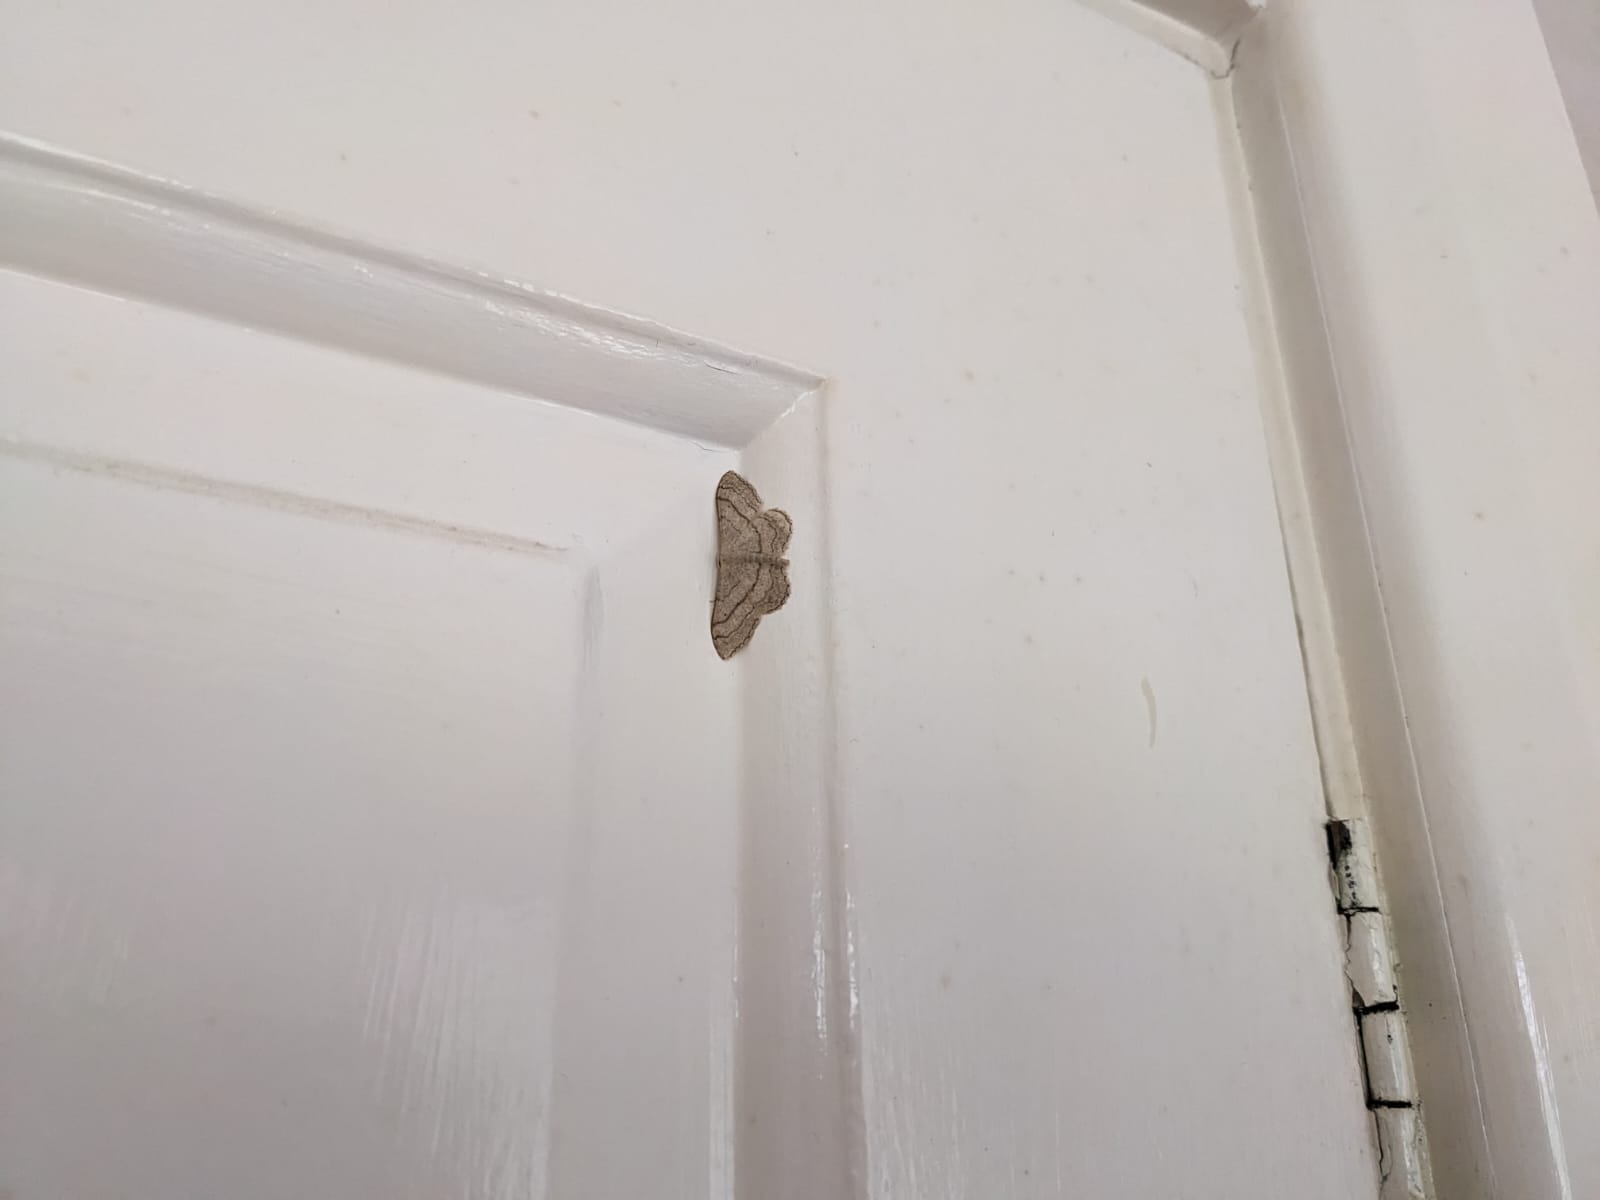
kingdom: Animalia
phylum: Arthropoda
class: Insecta
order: Lepidoptera
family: Geometridae
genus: Idaea
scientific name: Idaea aversata
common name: Riband wave
